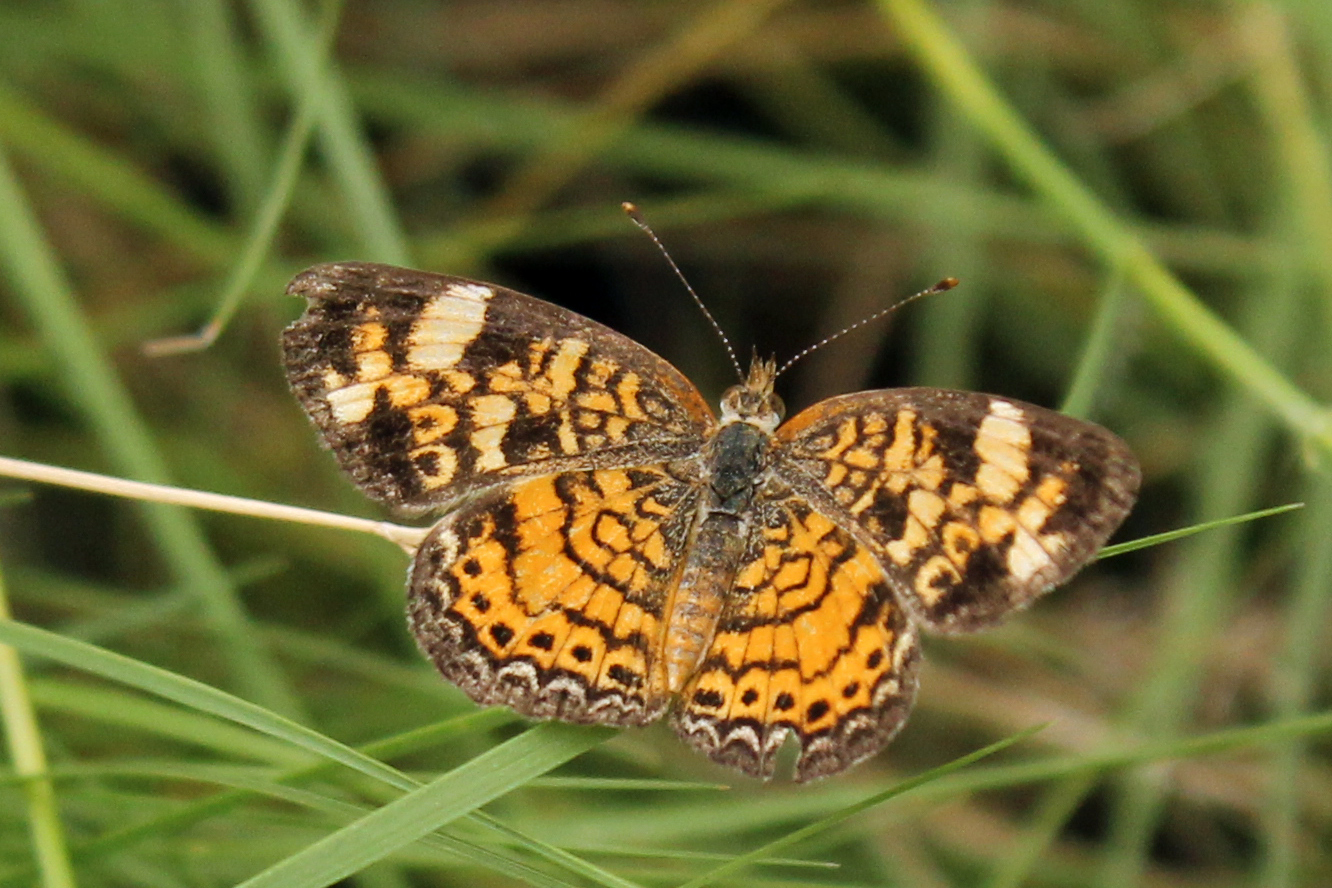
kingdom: Animalia
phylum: Arthropoda
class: Insecta
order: Lepidoptera
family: Nymphalidae
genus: Phyciodes
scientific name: Phyciodes tharos
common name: Pearl crescent
